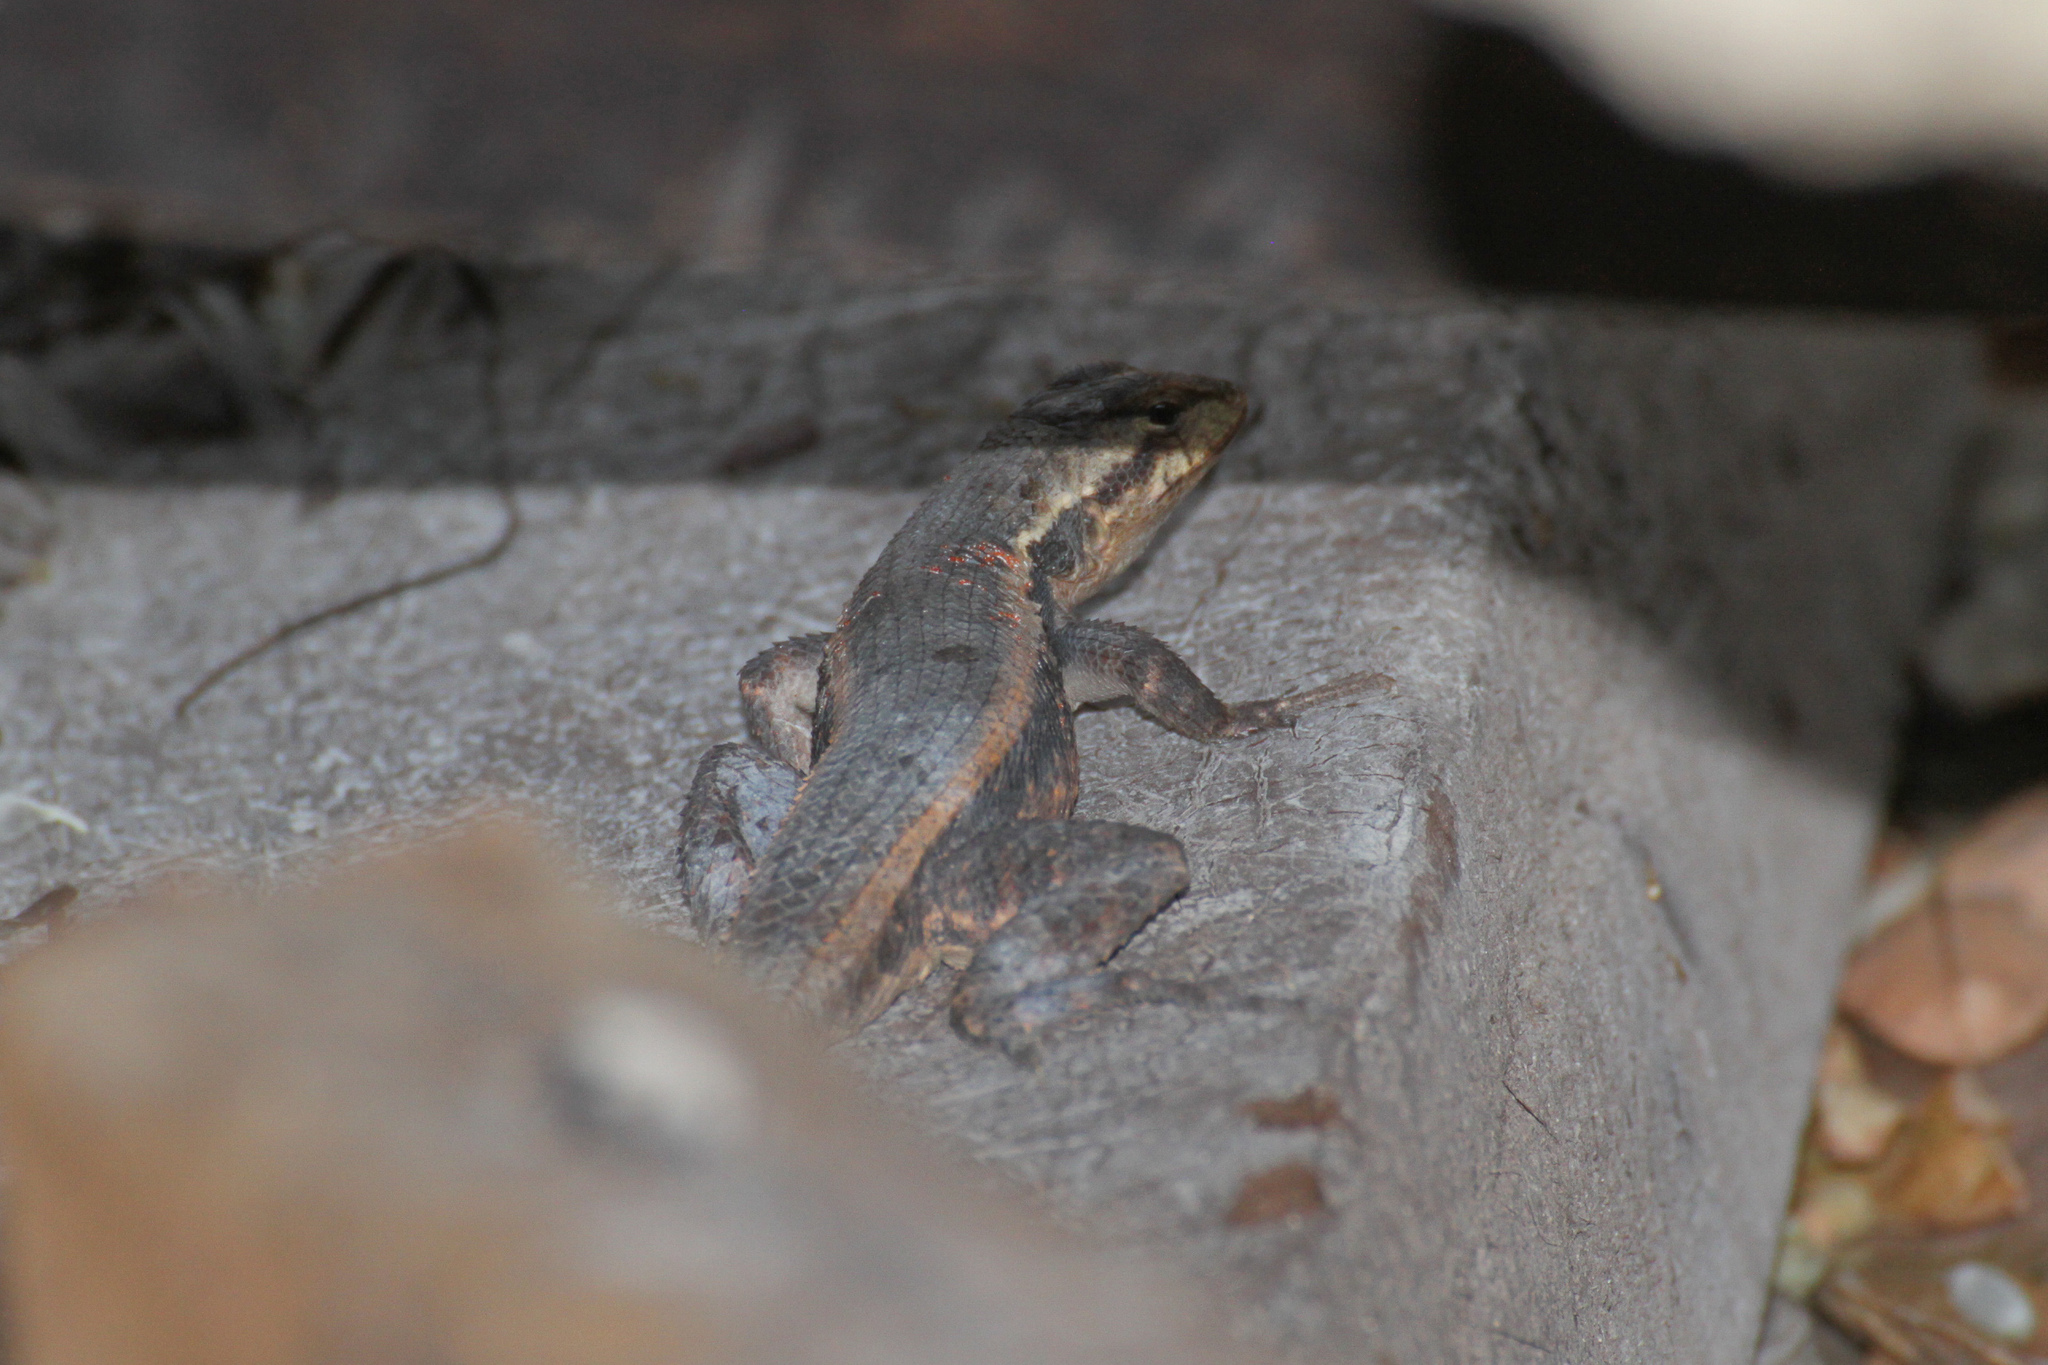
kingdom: Animalia
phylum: Chordata
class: Squamata
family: Phrynosomatidae
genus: Sceloporus
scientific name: Sceloporus chrysostictus
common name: Yellow-spotted spiny lizard
